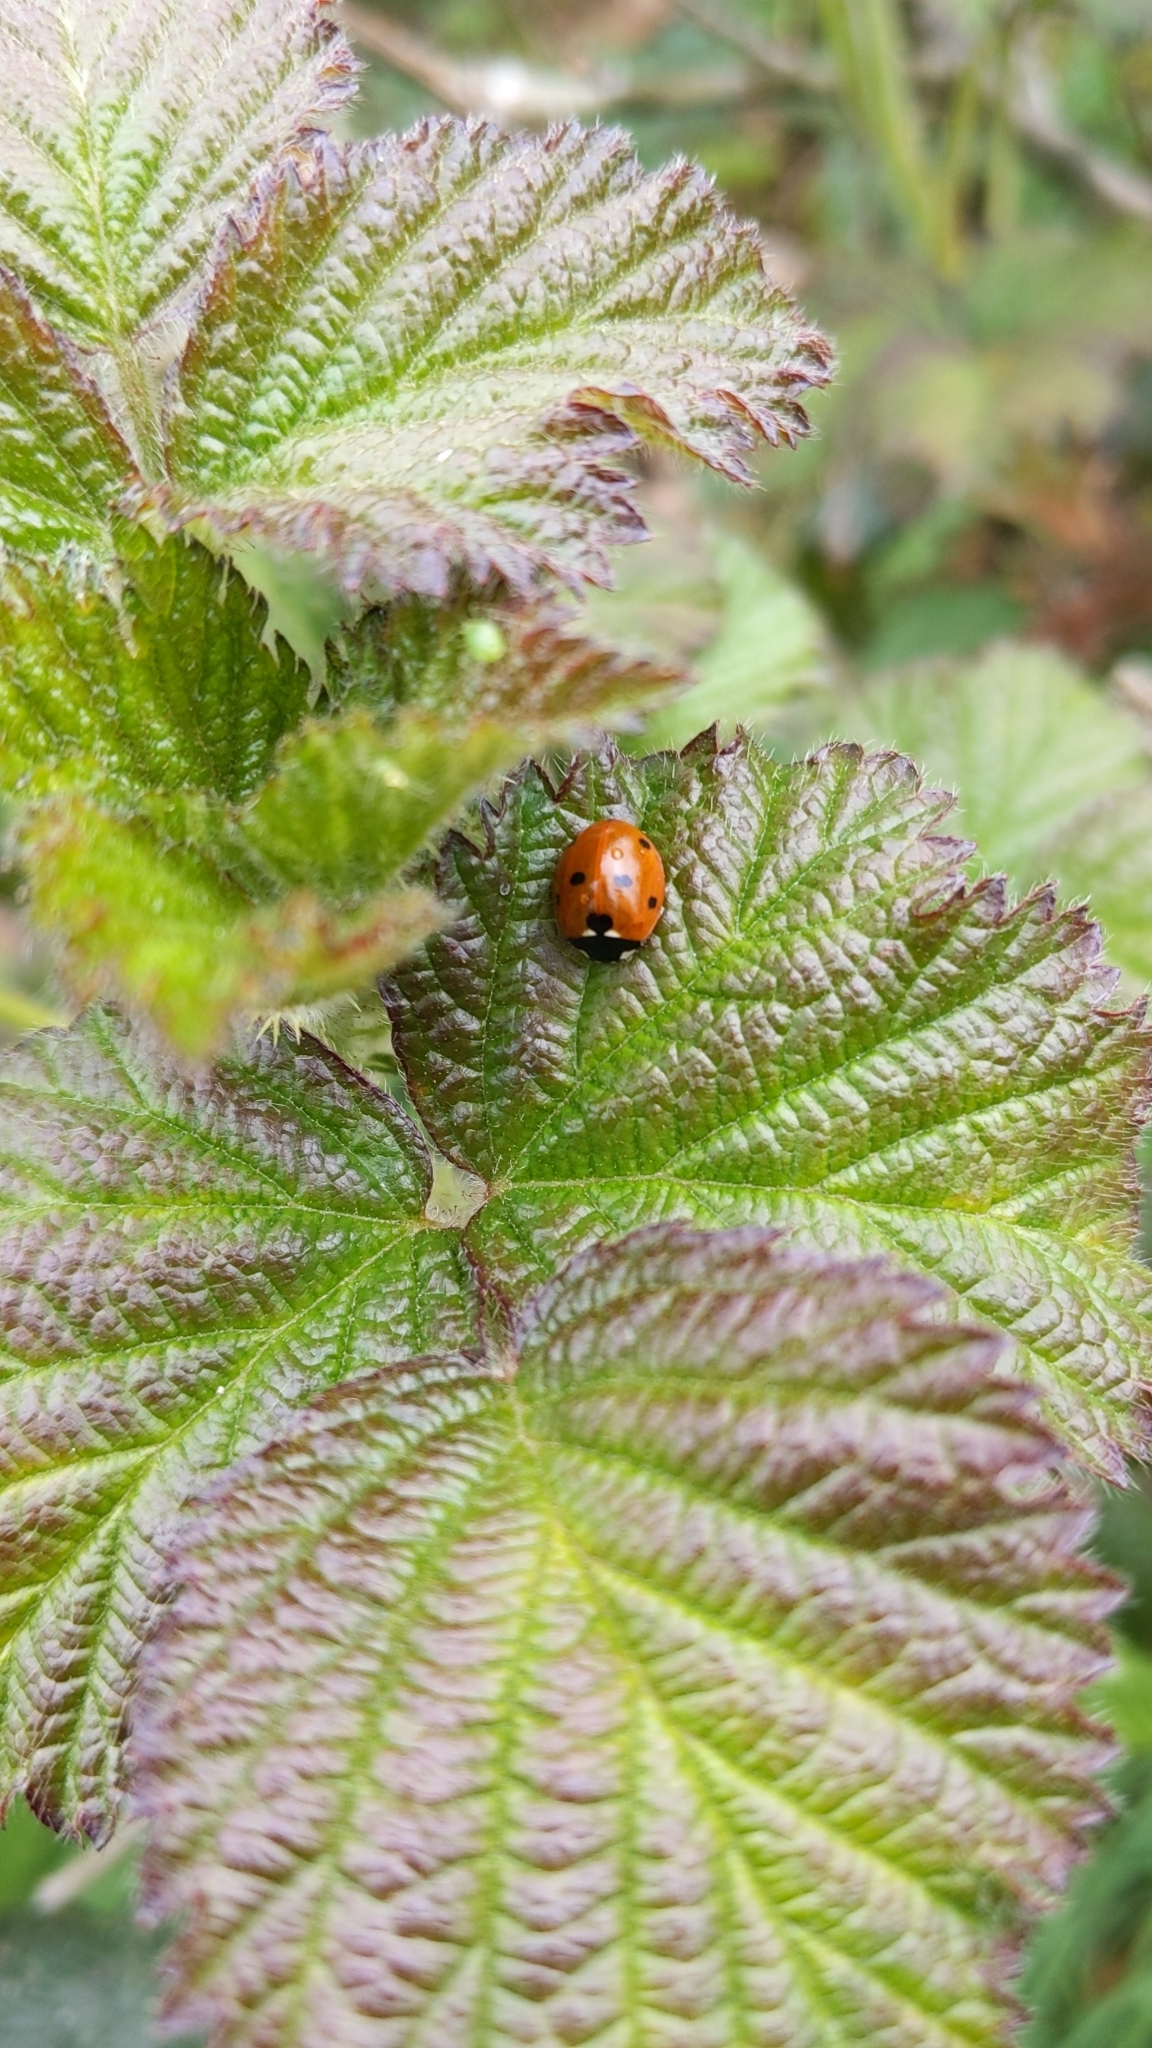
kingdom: Animalia
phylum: Arthropoda
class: Insecta
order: Coleoptera
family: Coccinellidae
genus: Coccinella
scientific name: Coccinella septempunctata
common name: Sevenspotted lady beetle
